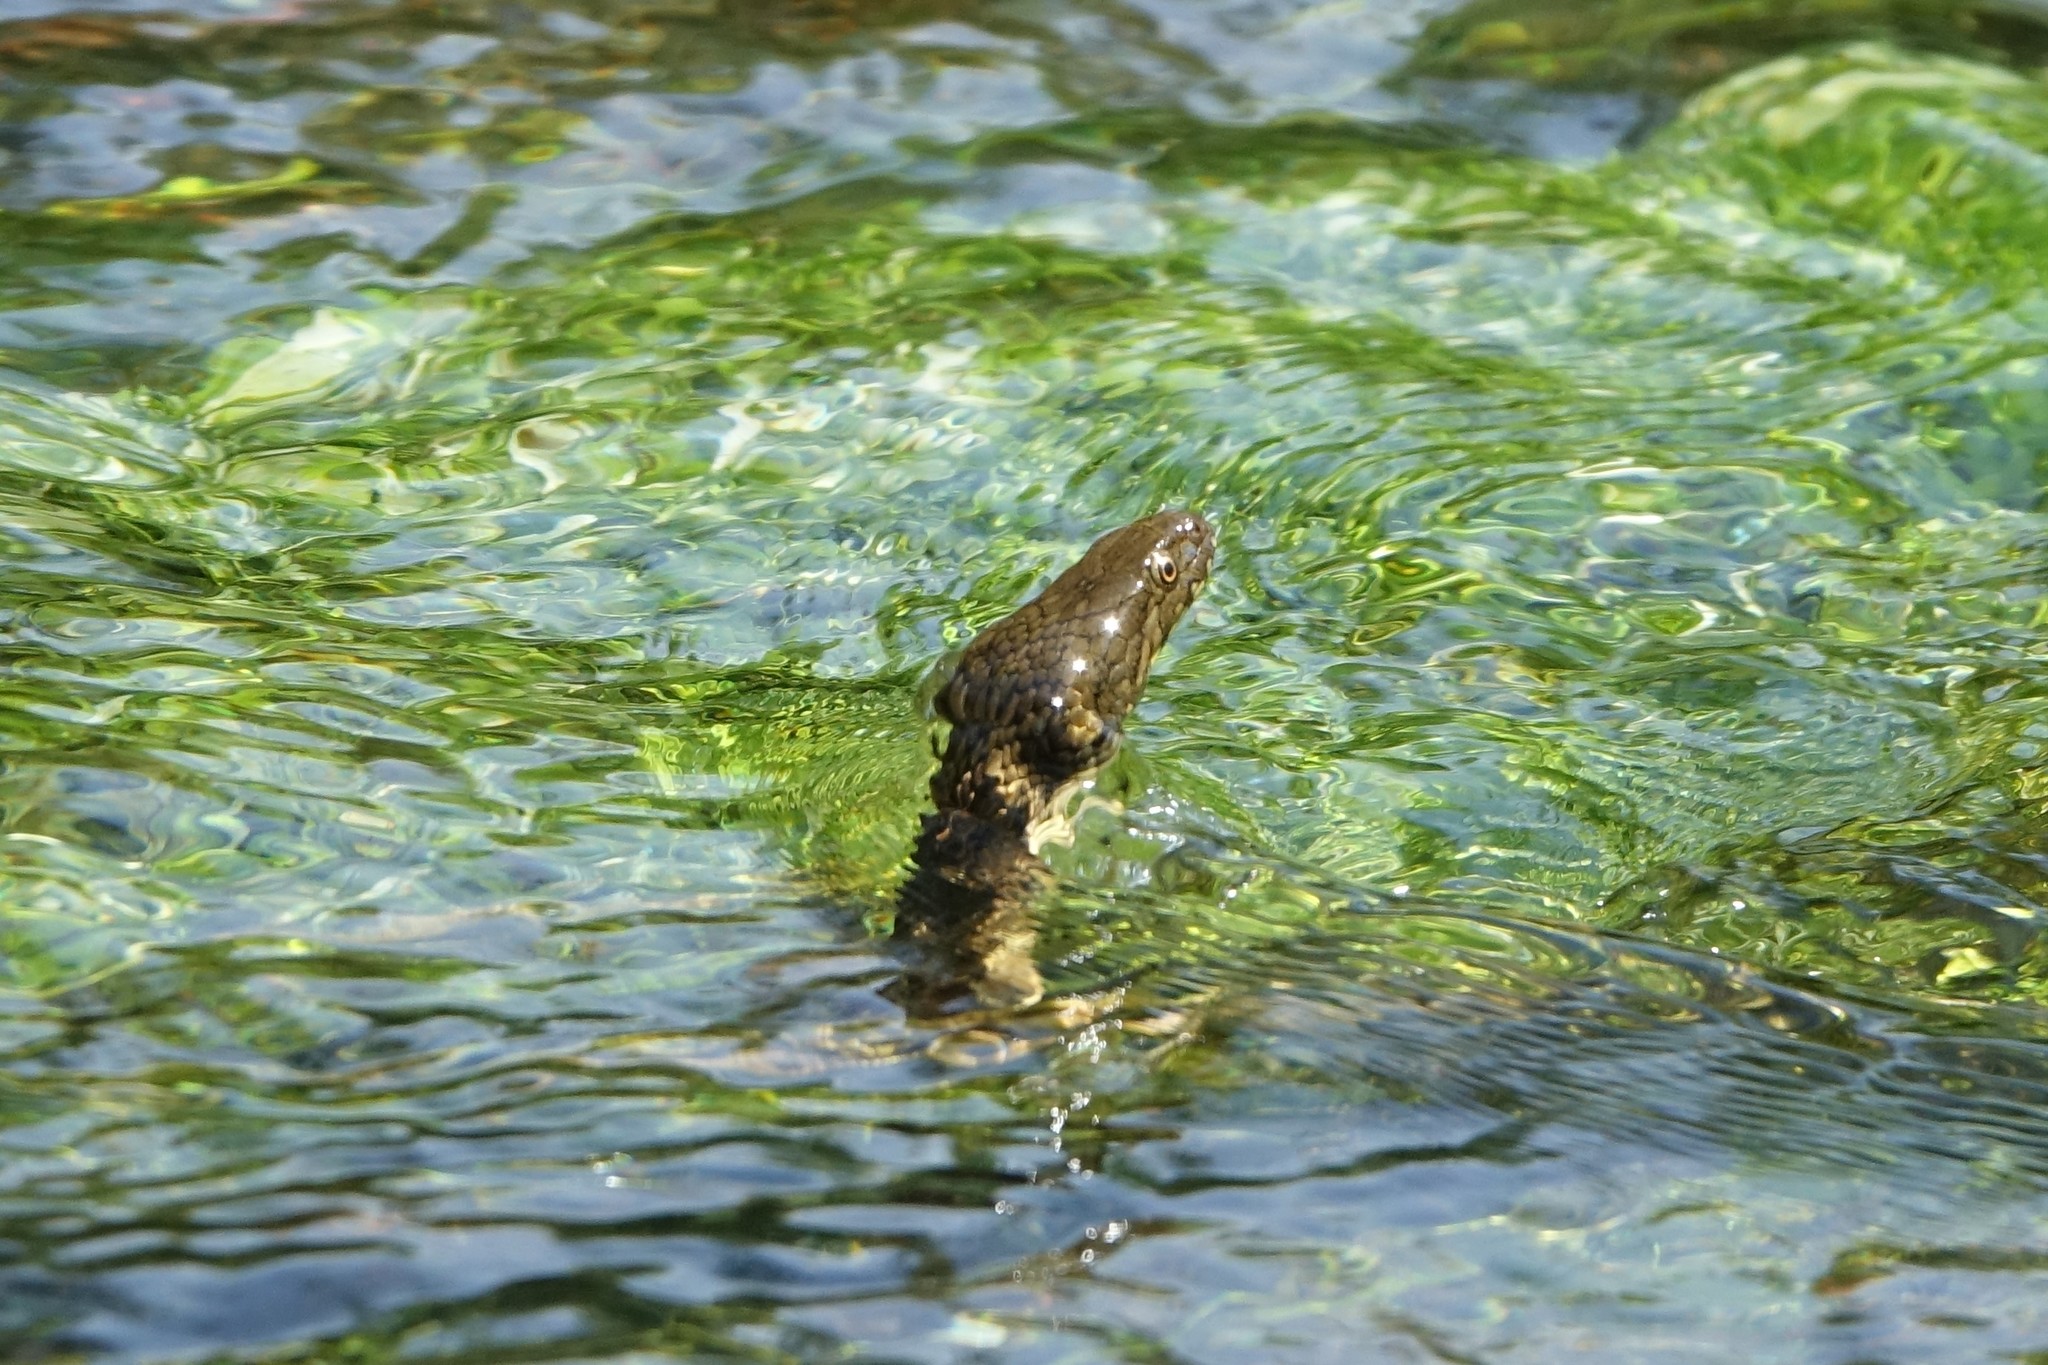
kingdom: Animalia
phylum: Chordata
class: Squamata
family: Colubridae
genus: Natrix
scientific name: Natrix maura
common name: Viperine water snake
